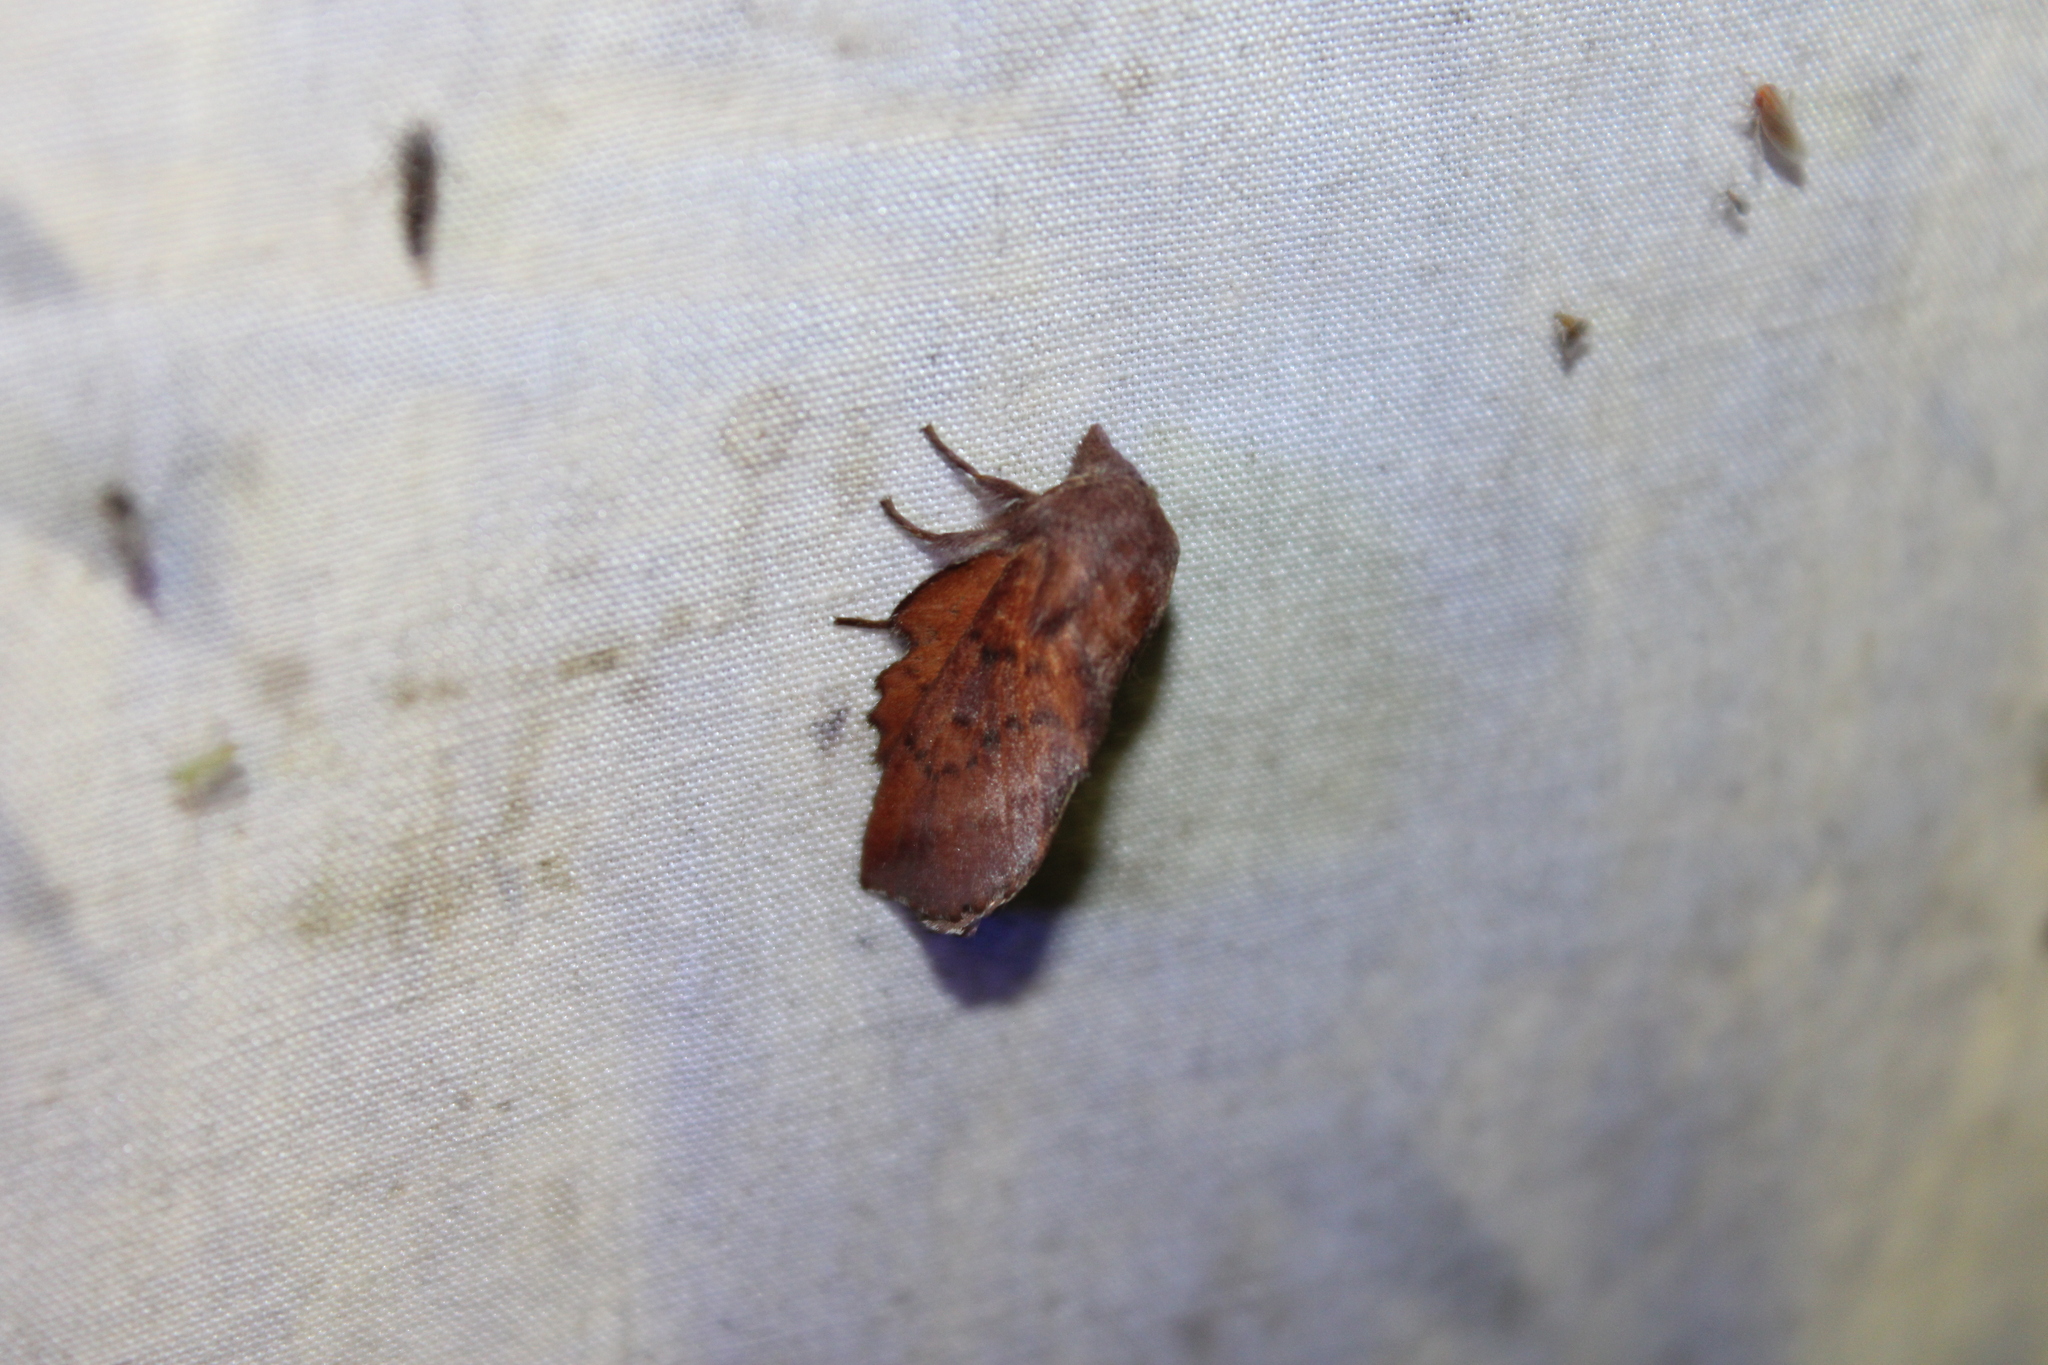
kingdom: Animalia
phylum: Arthropoda
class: Insecta
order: Lepidoptera
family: Lasiocampidae
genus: Phyllodesma
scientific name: Phyllodesma americana
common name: American lappet moth
